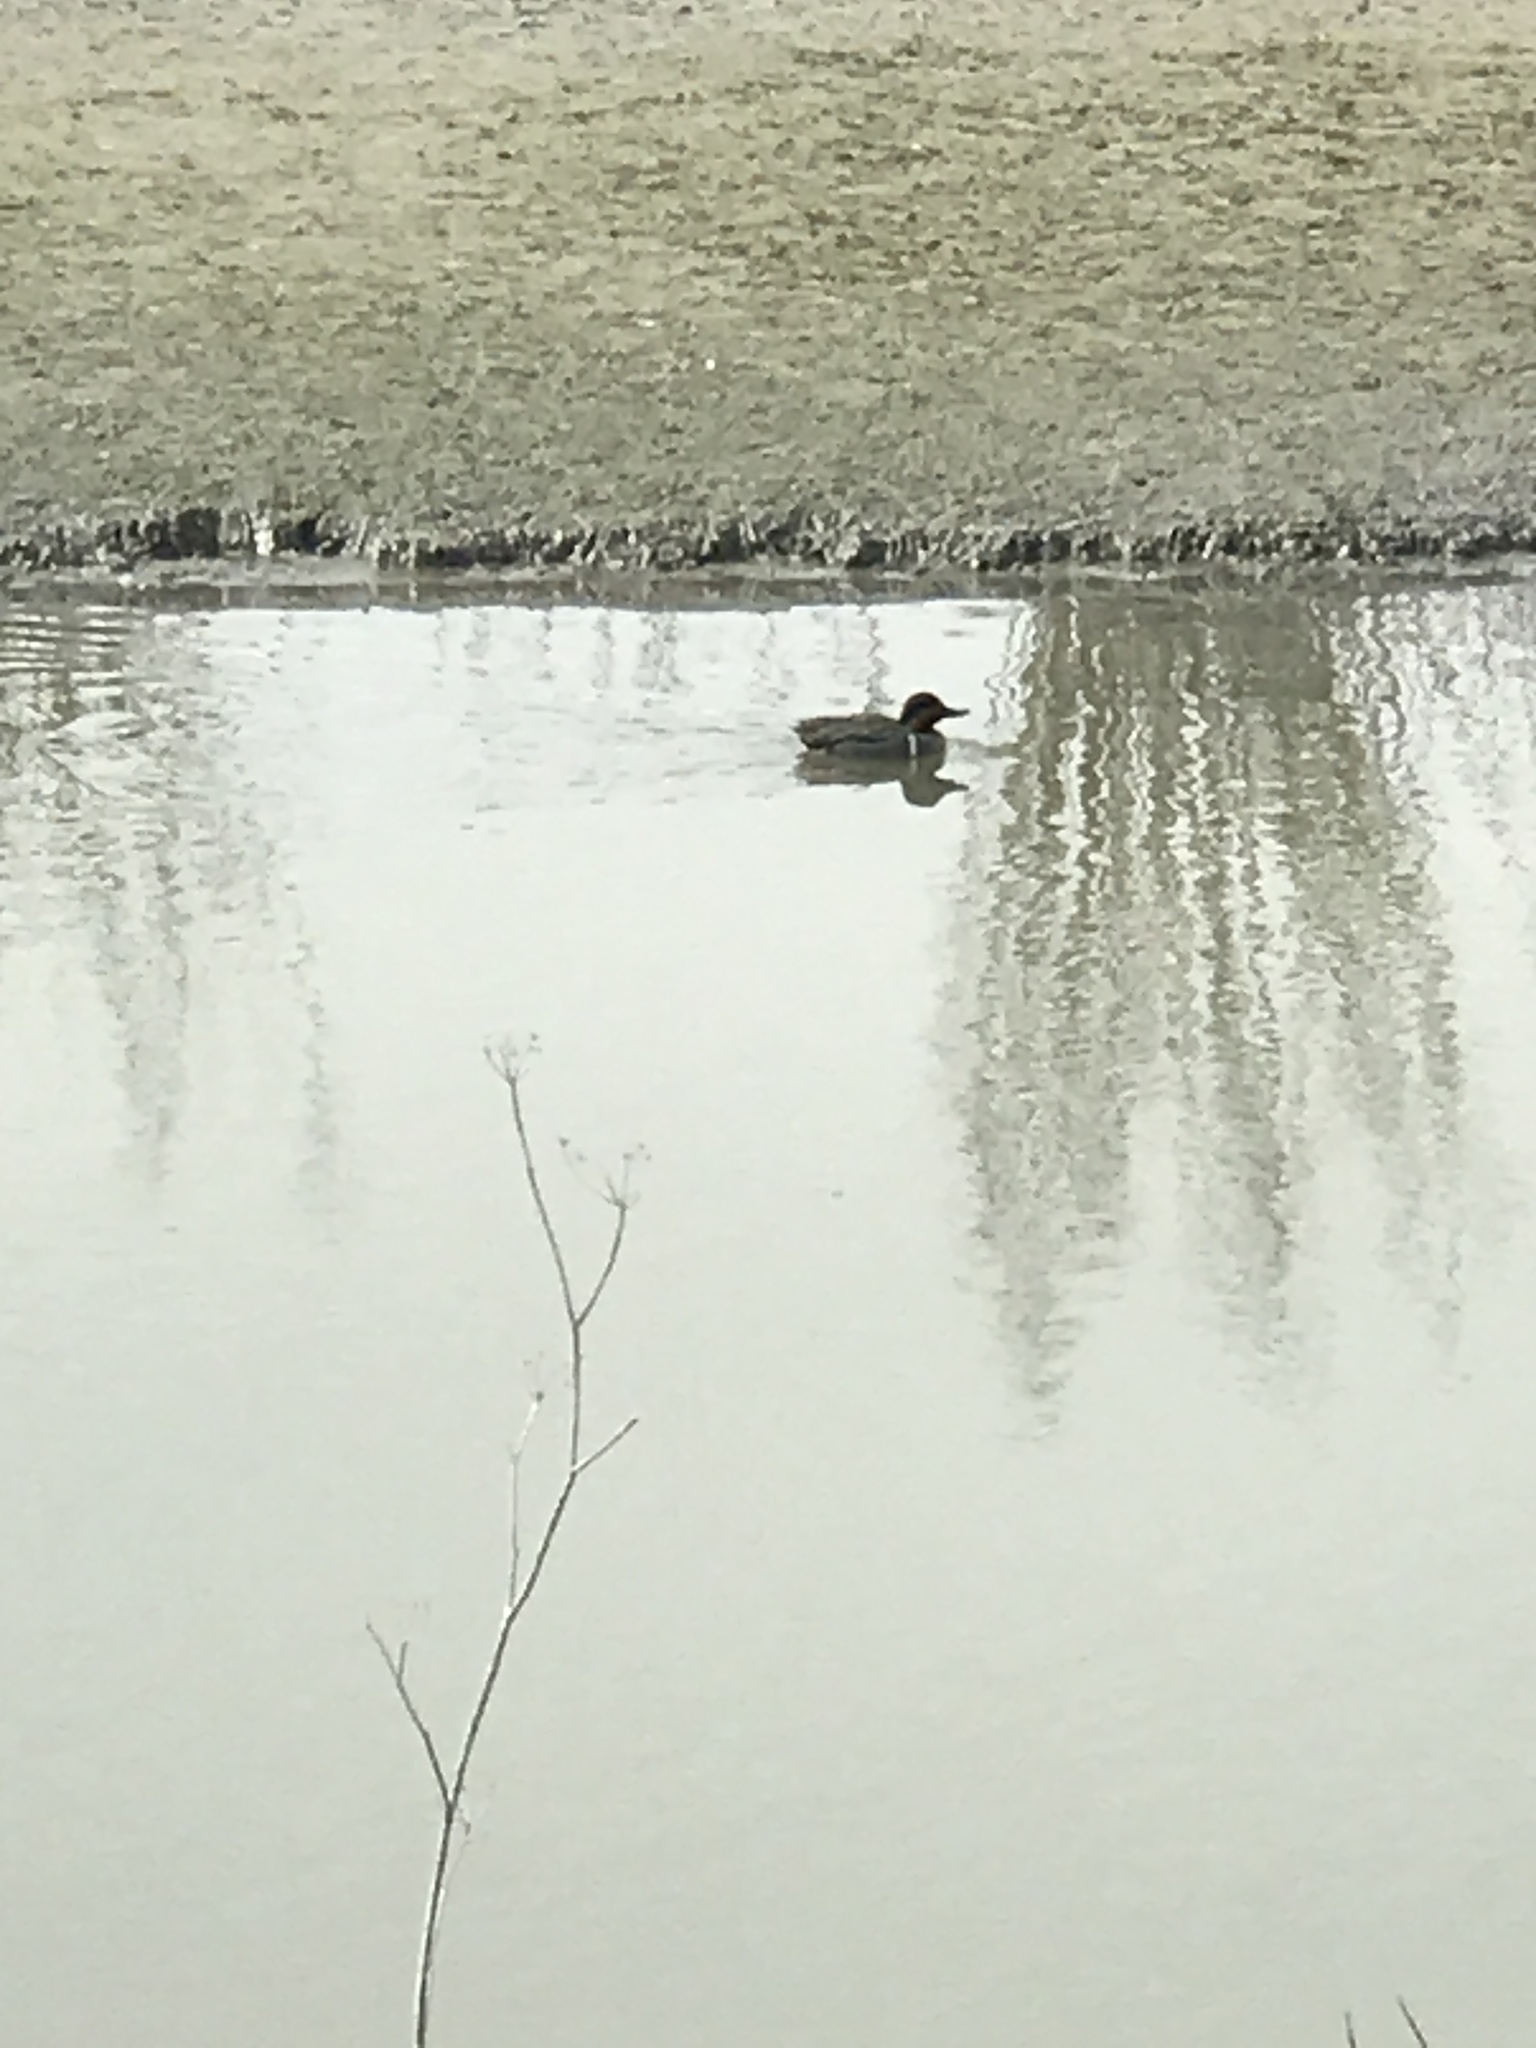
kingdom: Animalia
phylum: Chordata
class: Aves
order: Anseriformes
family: Anatidae
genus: Anas
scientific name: Anas crecca
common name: Eurasian teal
